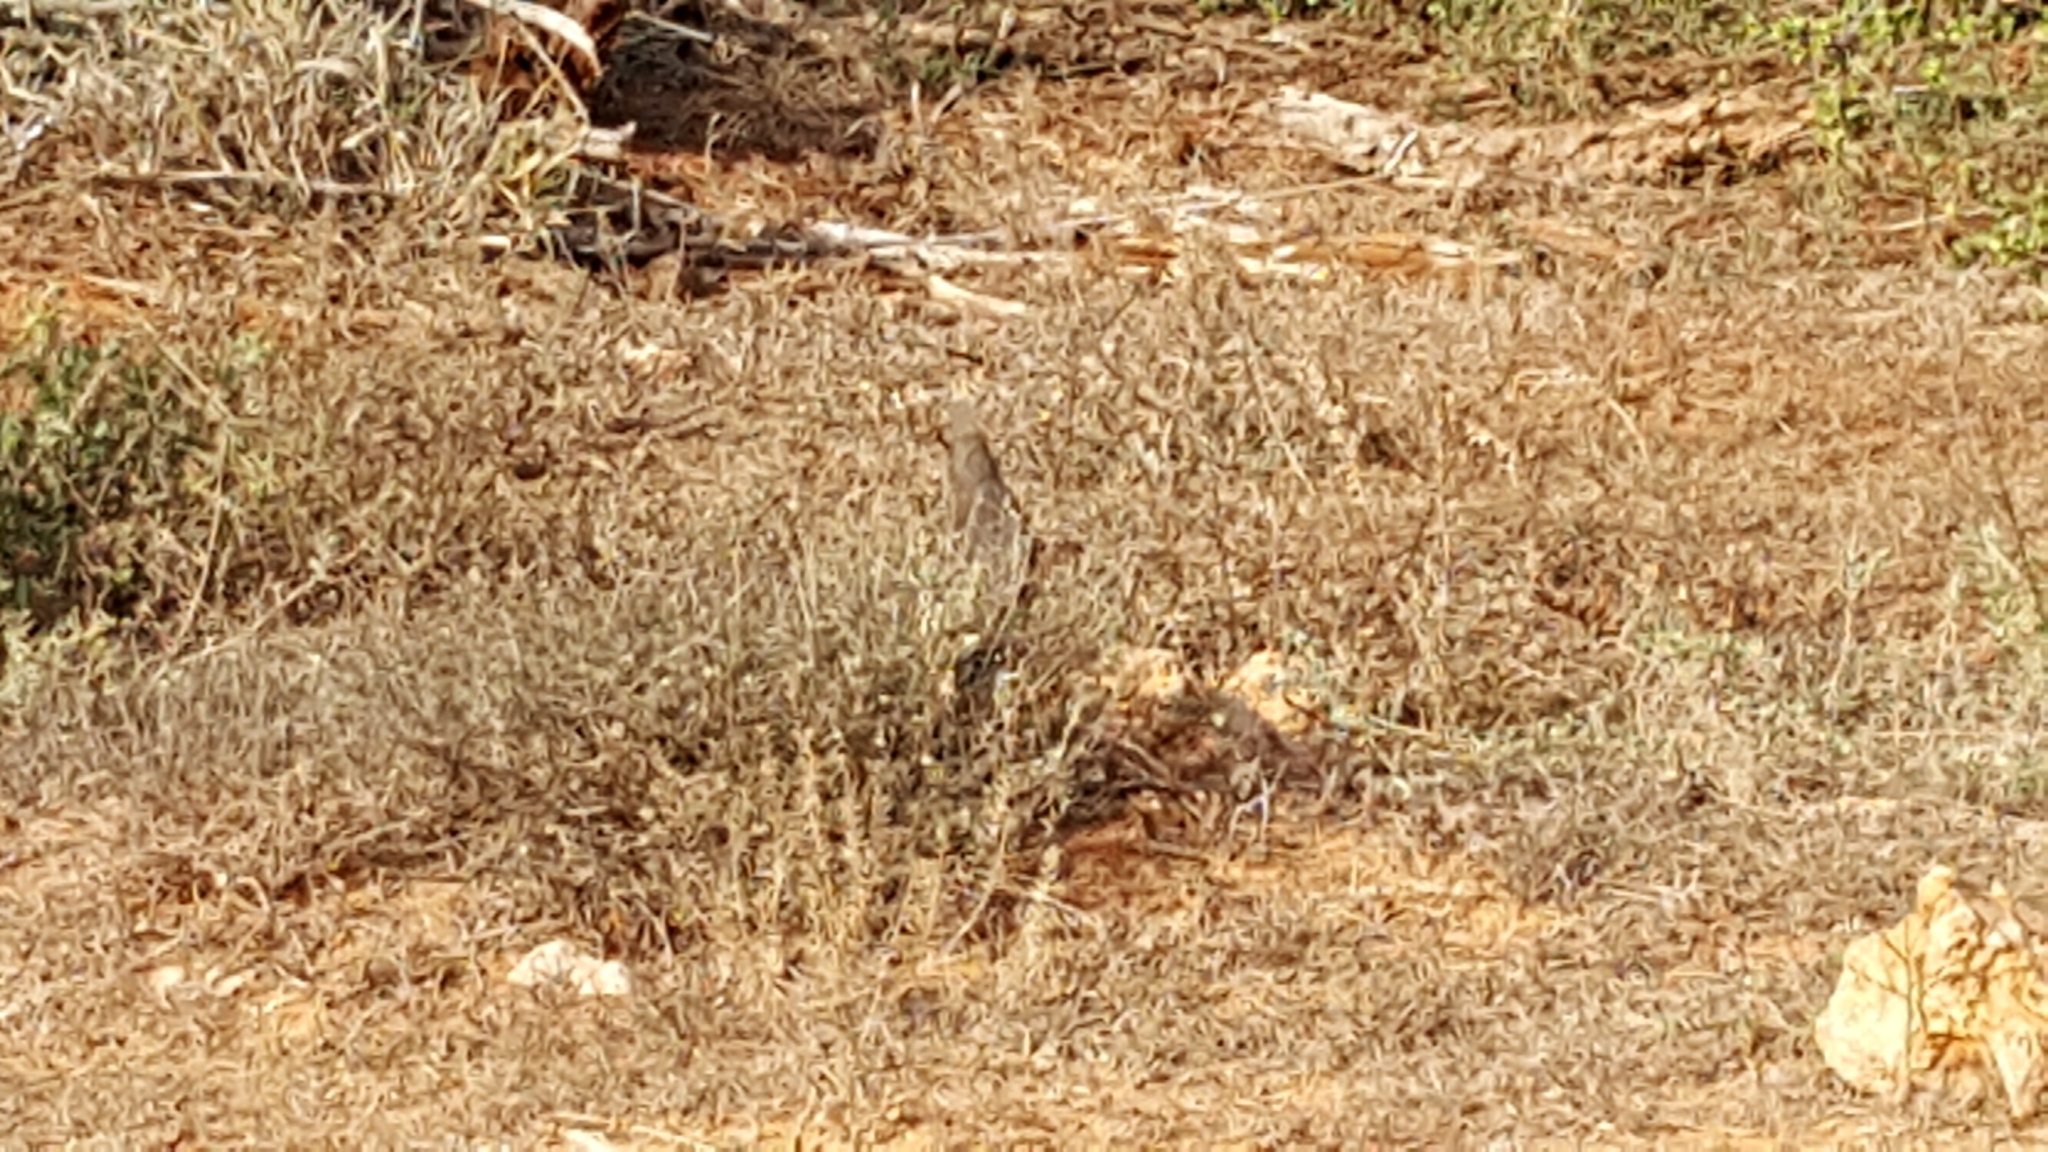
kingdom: Animalia
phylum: Chordata
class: Aves
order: Coliiformes
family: Coliidae
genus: Colius
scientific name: Colius striatus
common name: Speckled mousebird
